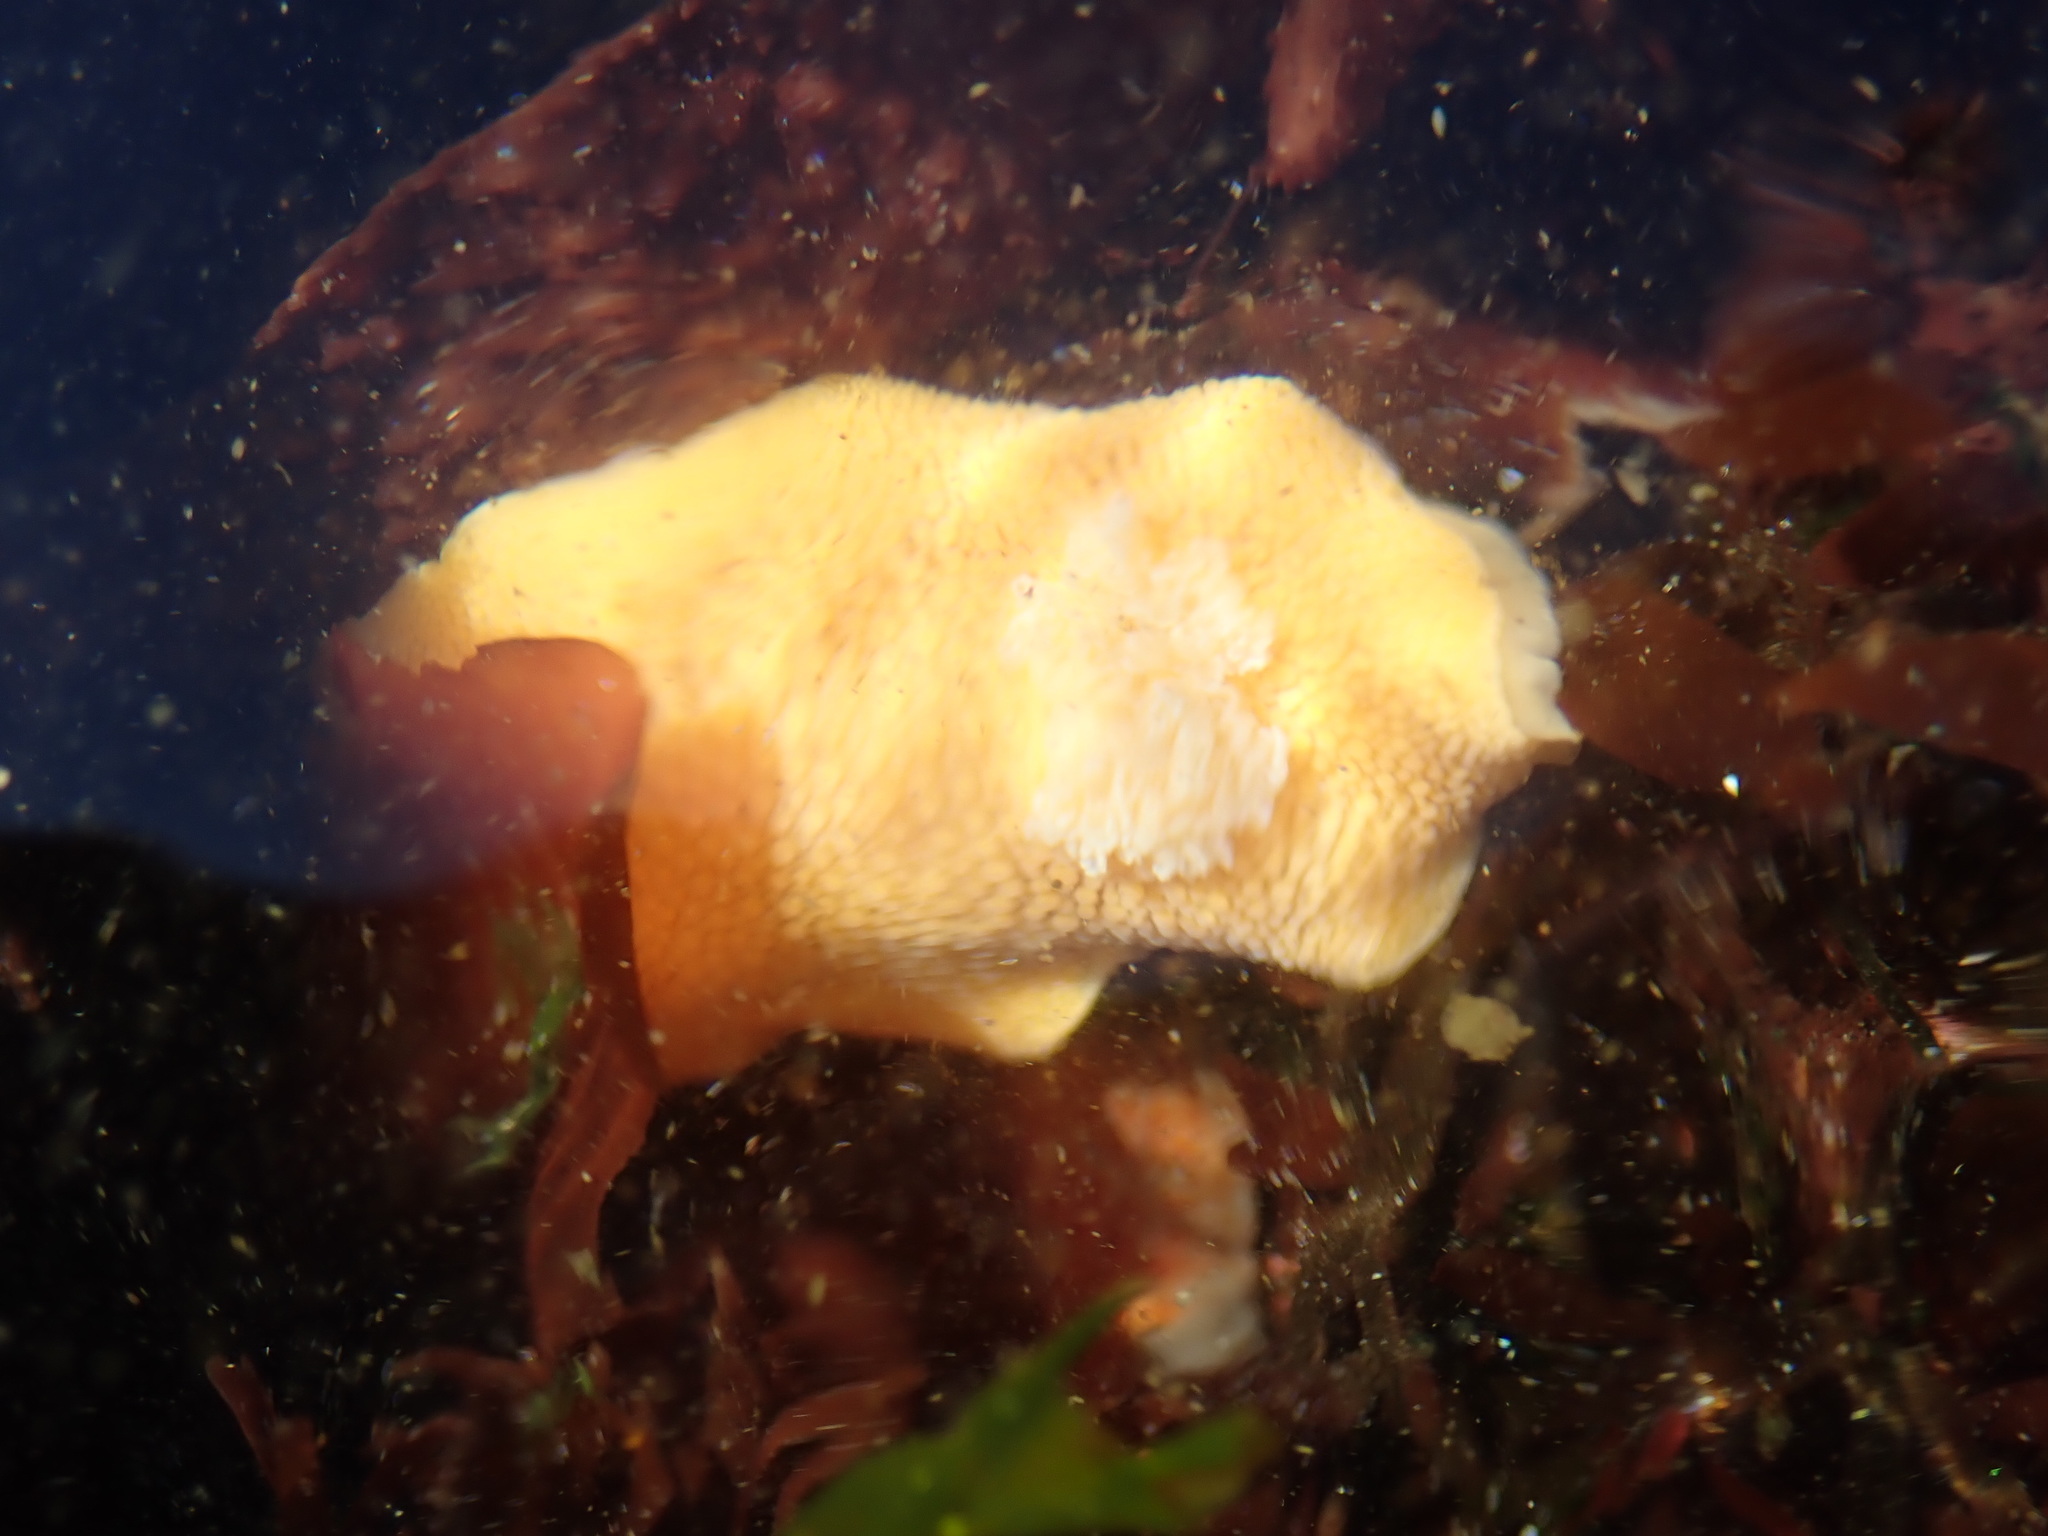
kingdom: Animalia
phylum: Mollusca
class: Gastropoda
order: Nudibranchia
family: Discodorididae
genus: Peltodoris
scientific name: Peltodoris nobilis
